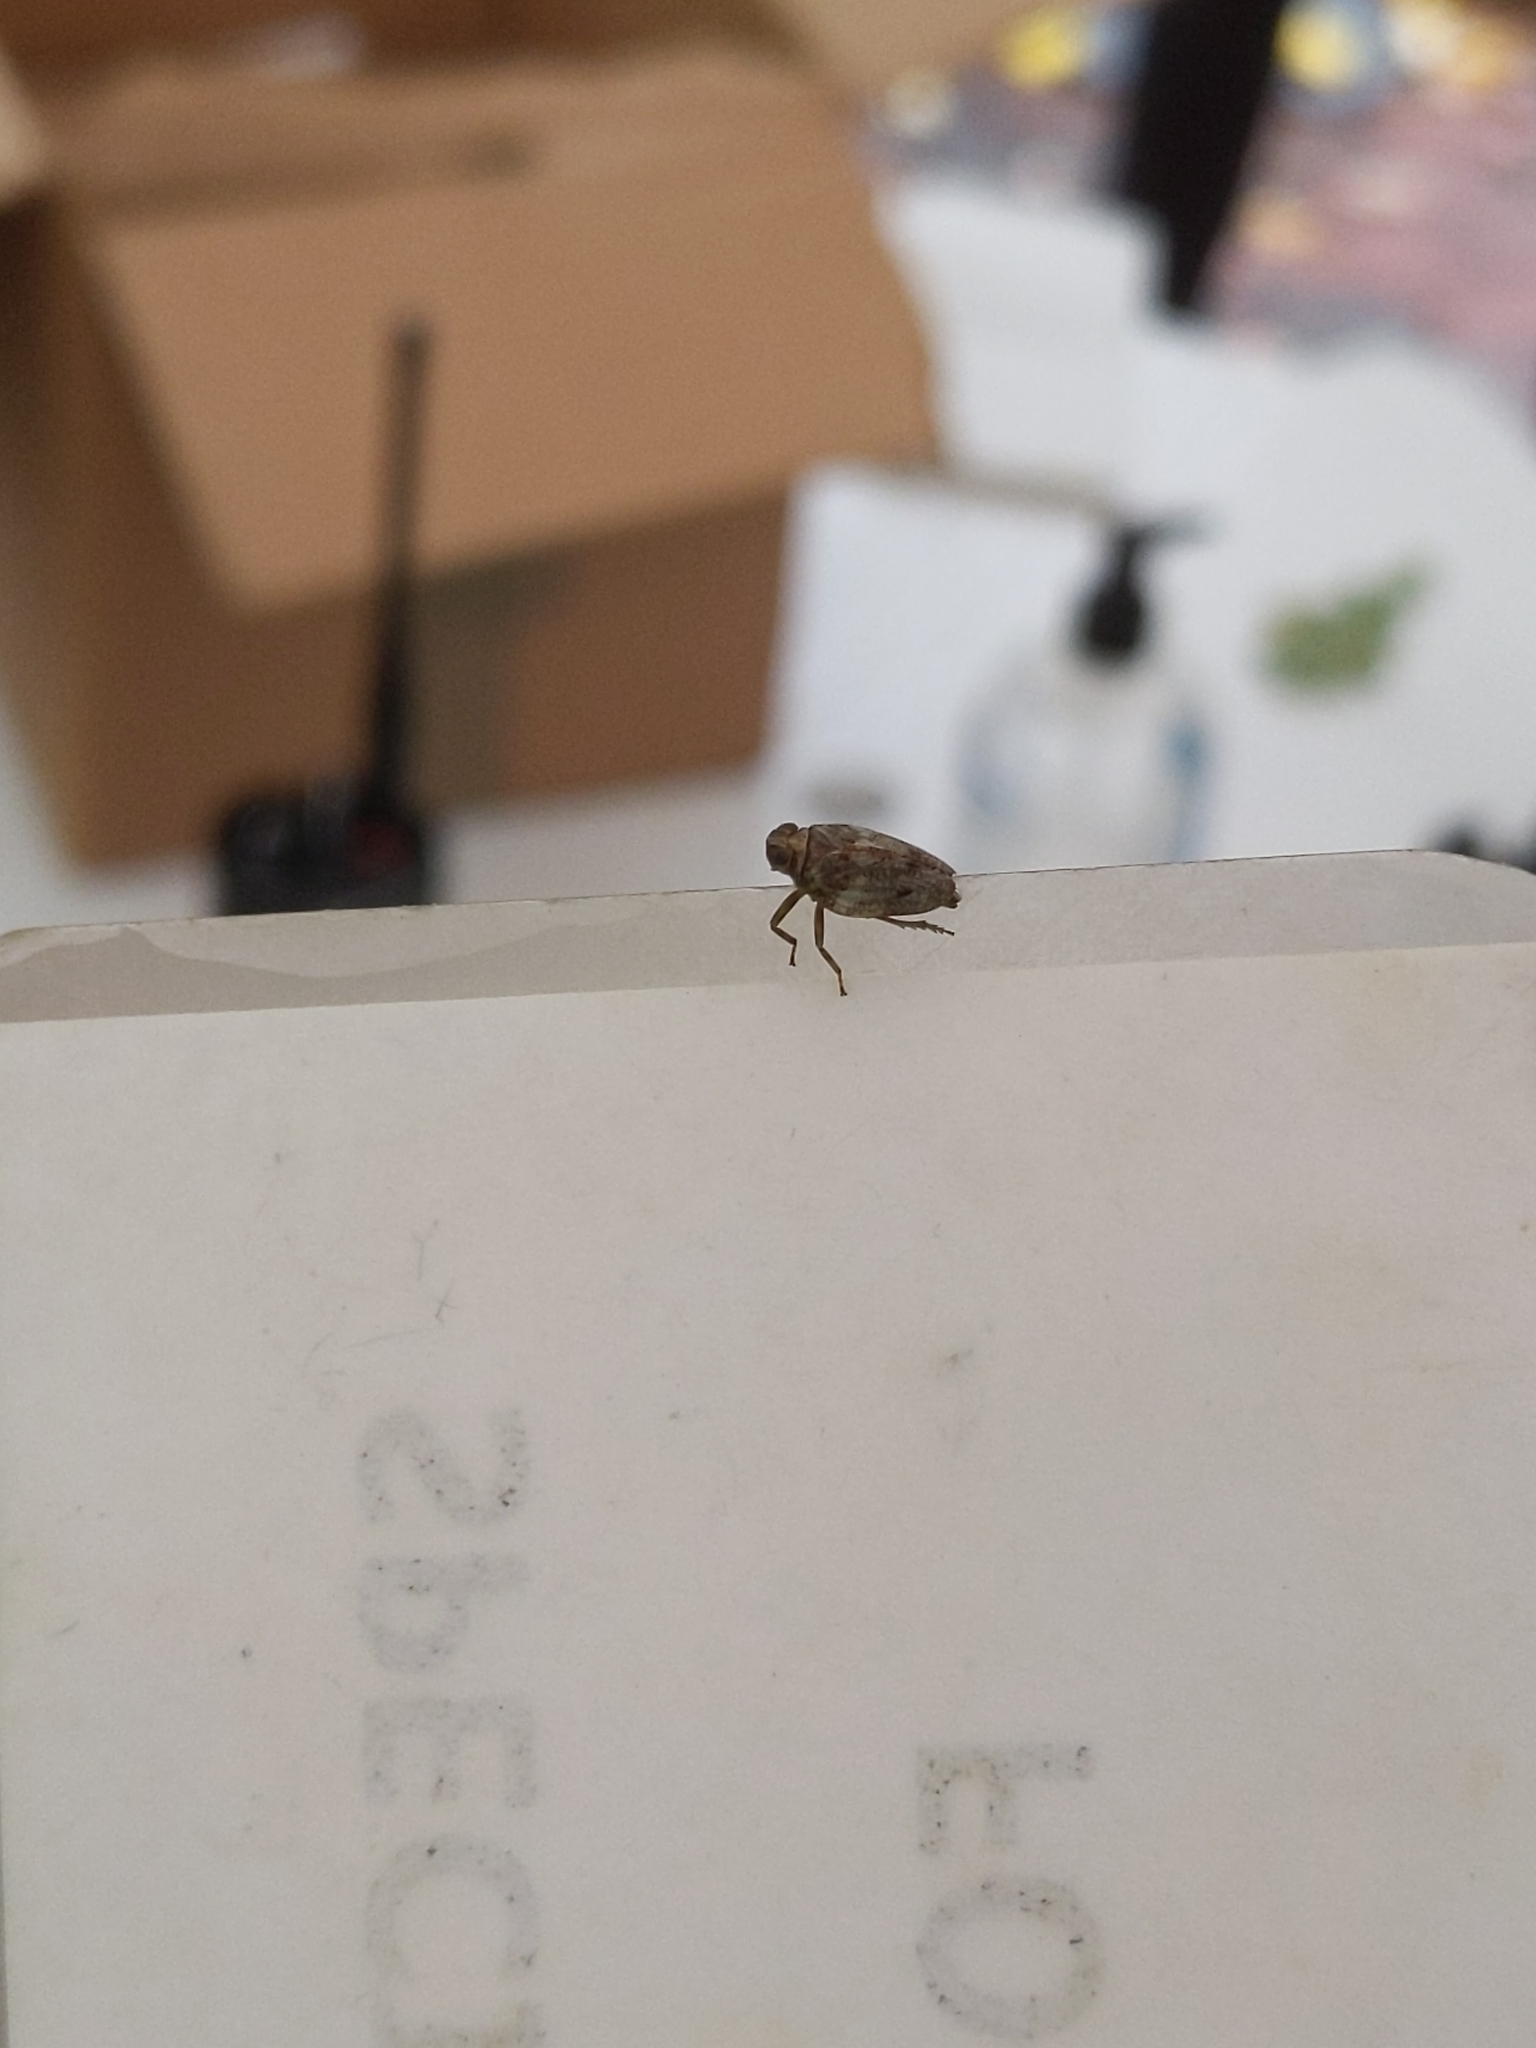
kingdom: Animalia
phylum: Arthropoda
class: Insecta
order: Hemiptera
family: Issidae
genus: Issus
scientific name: Issus coleoptratus
